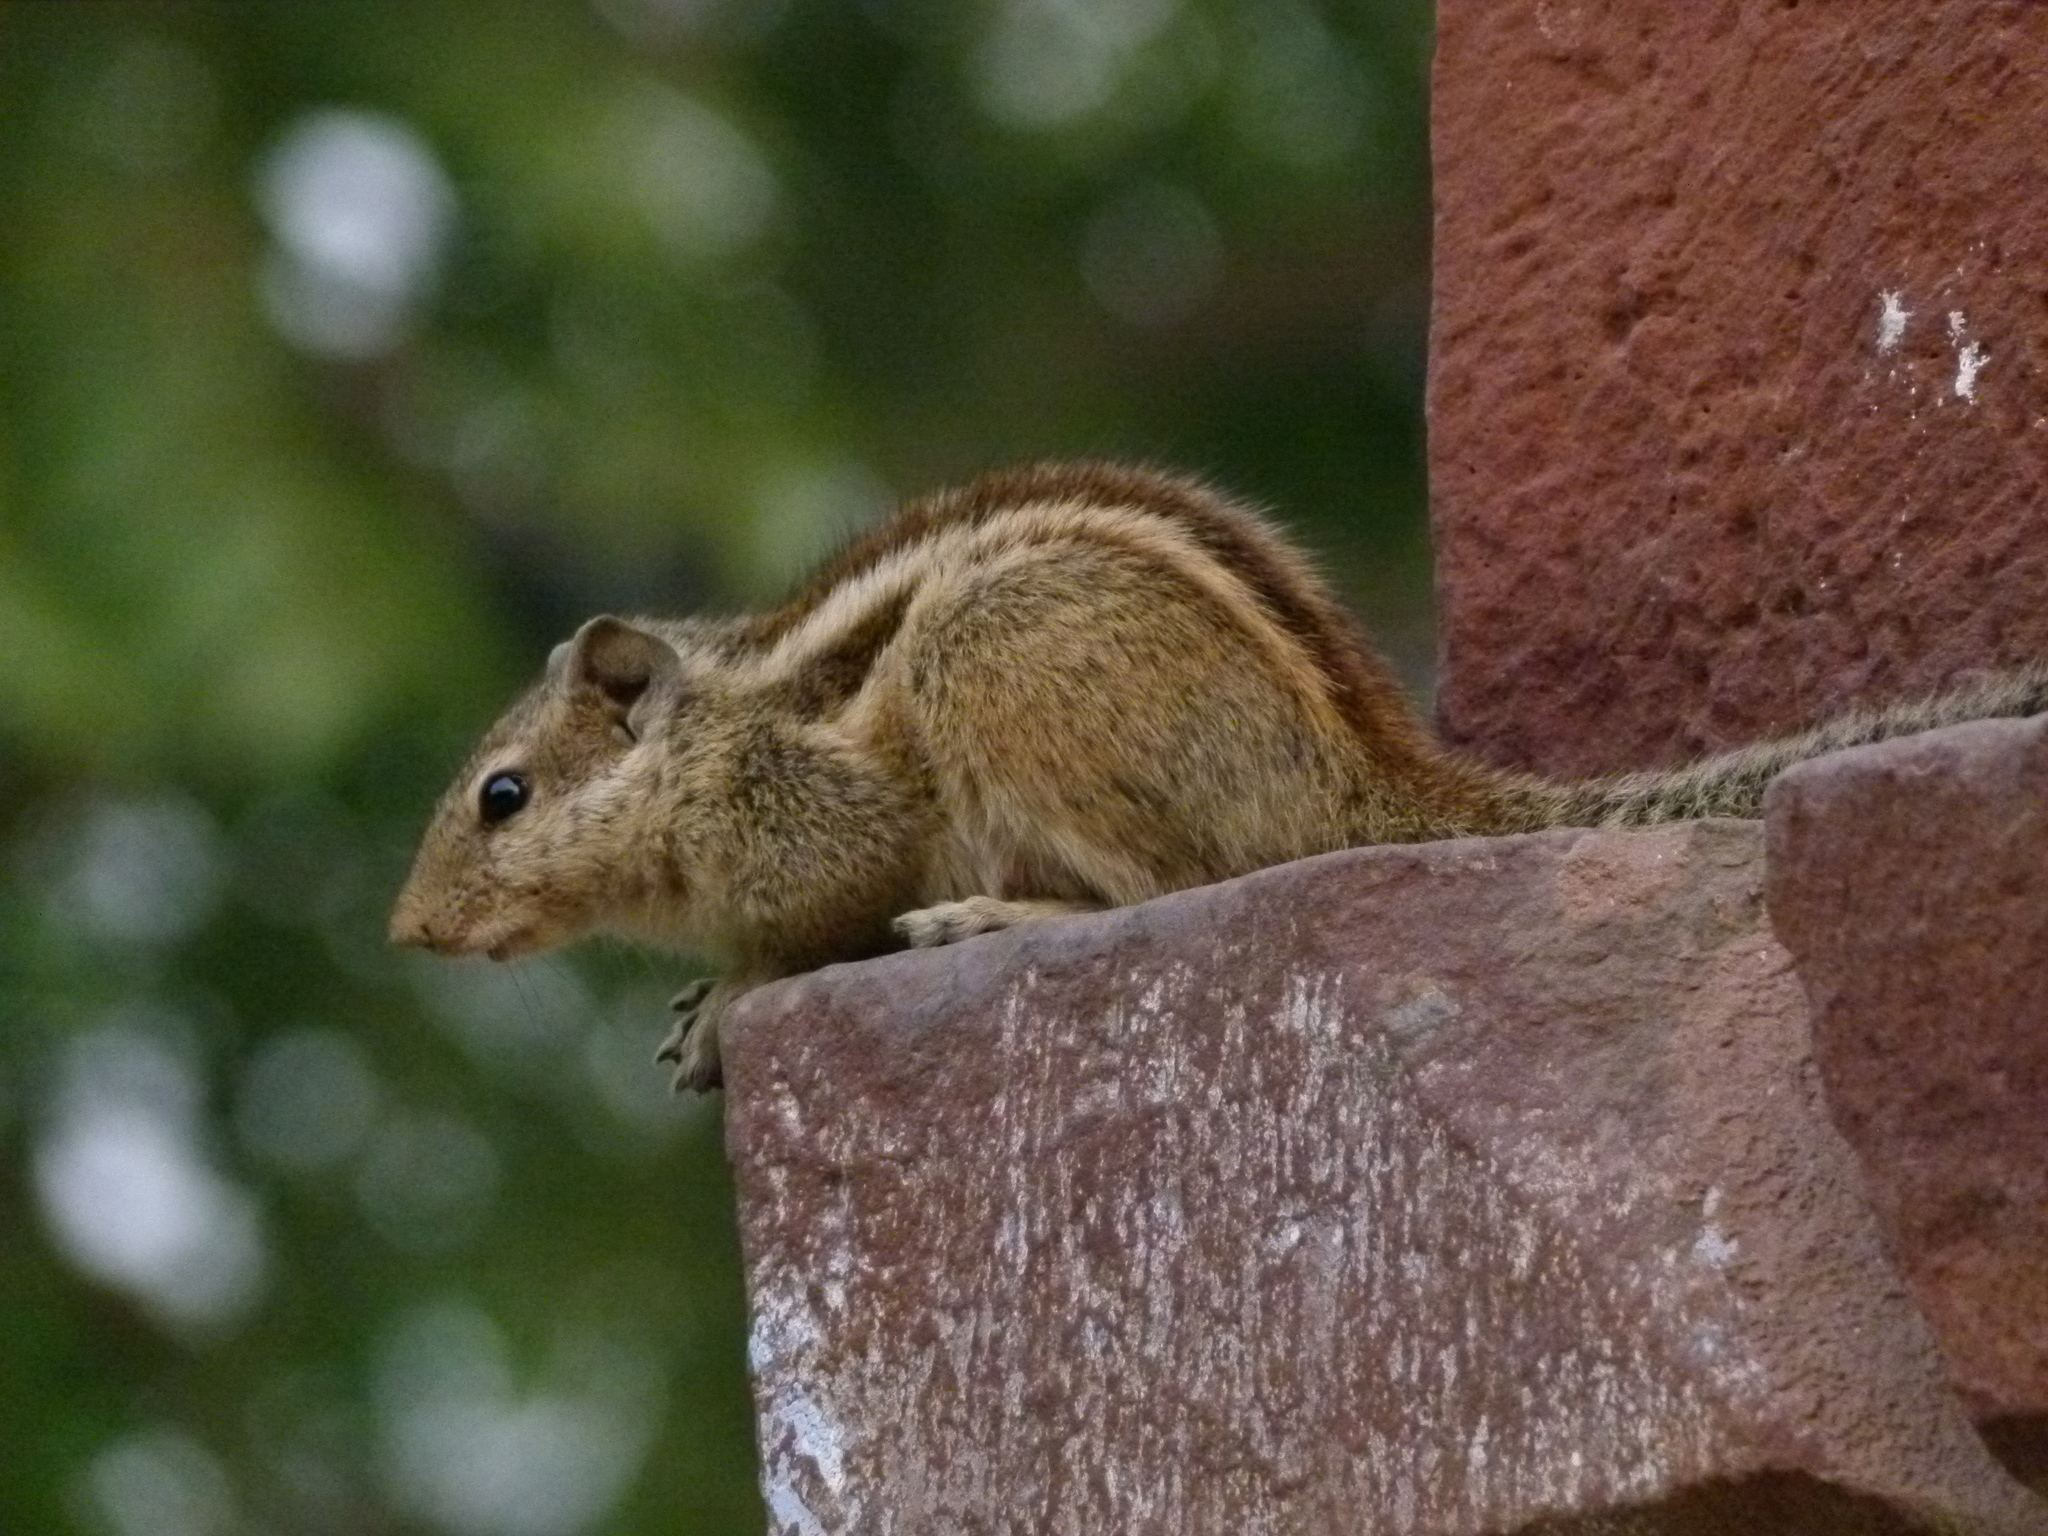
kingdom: Animalia
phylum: Chordata
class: Mammalia
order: Rodentia
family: Sciuridae
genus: Funambulus
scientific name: Funambulus pennantii
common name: Northern palm squirrel
